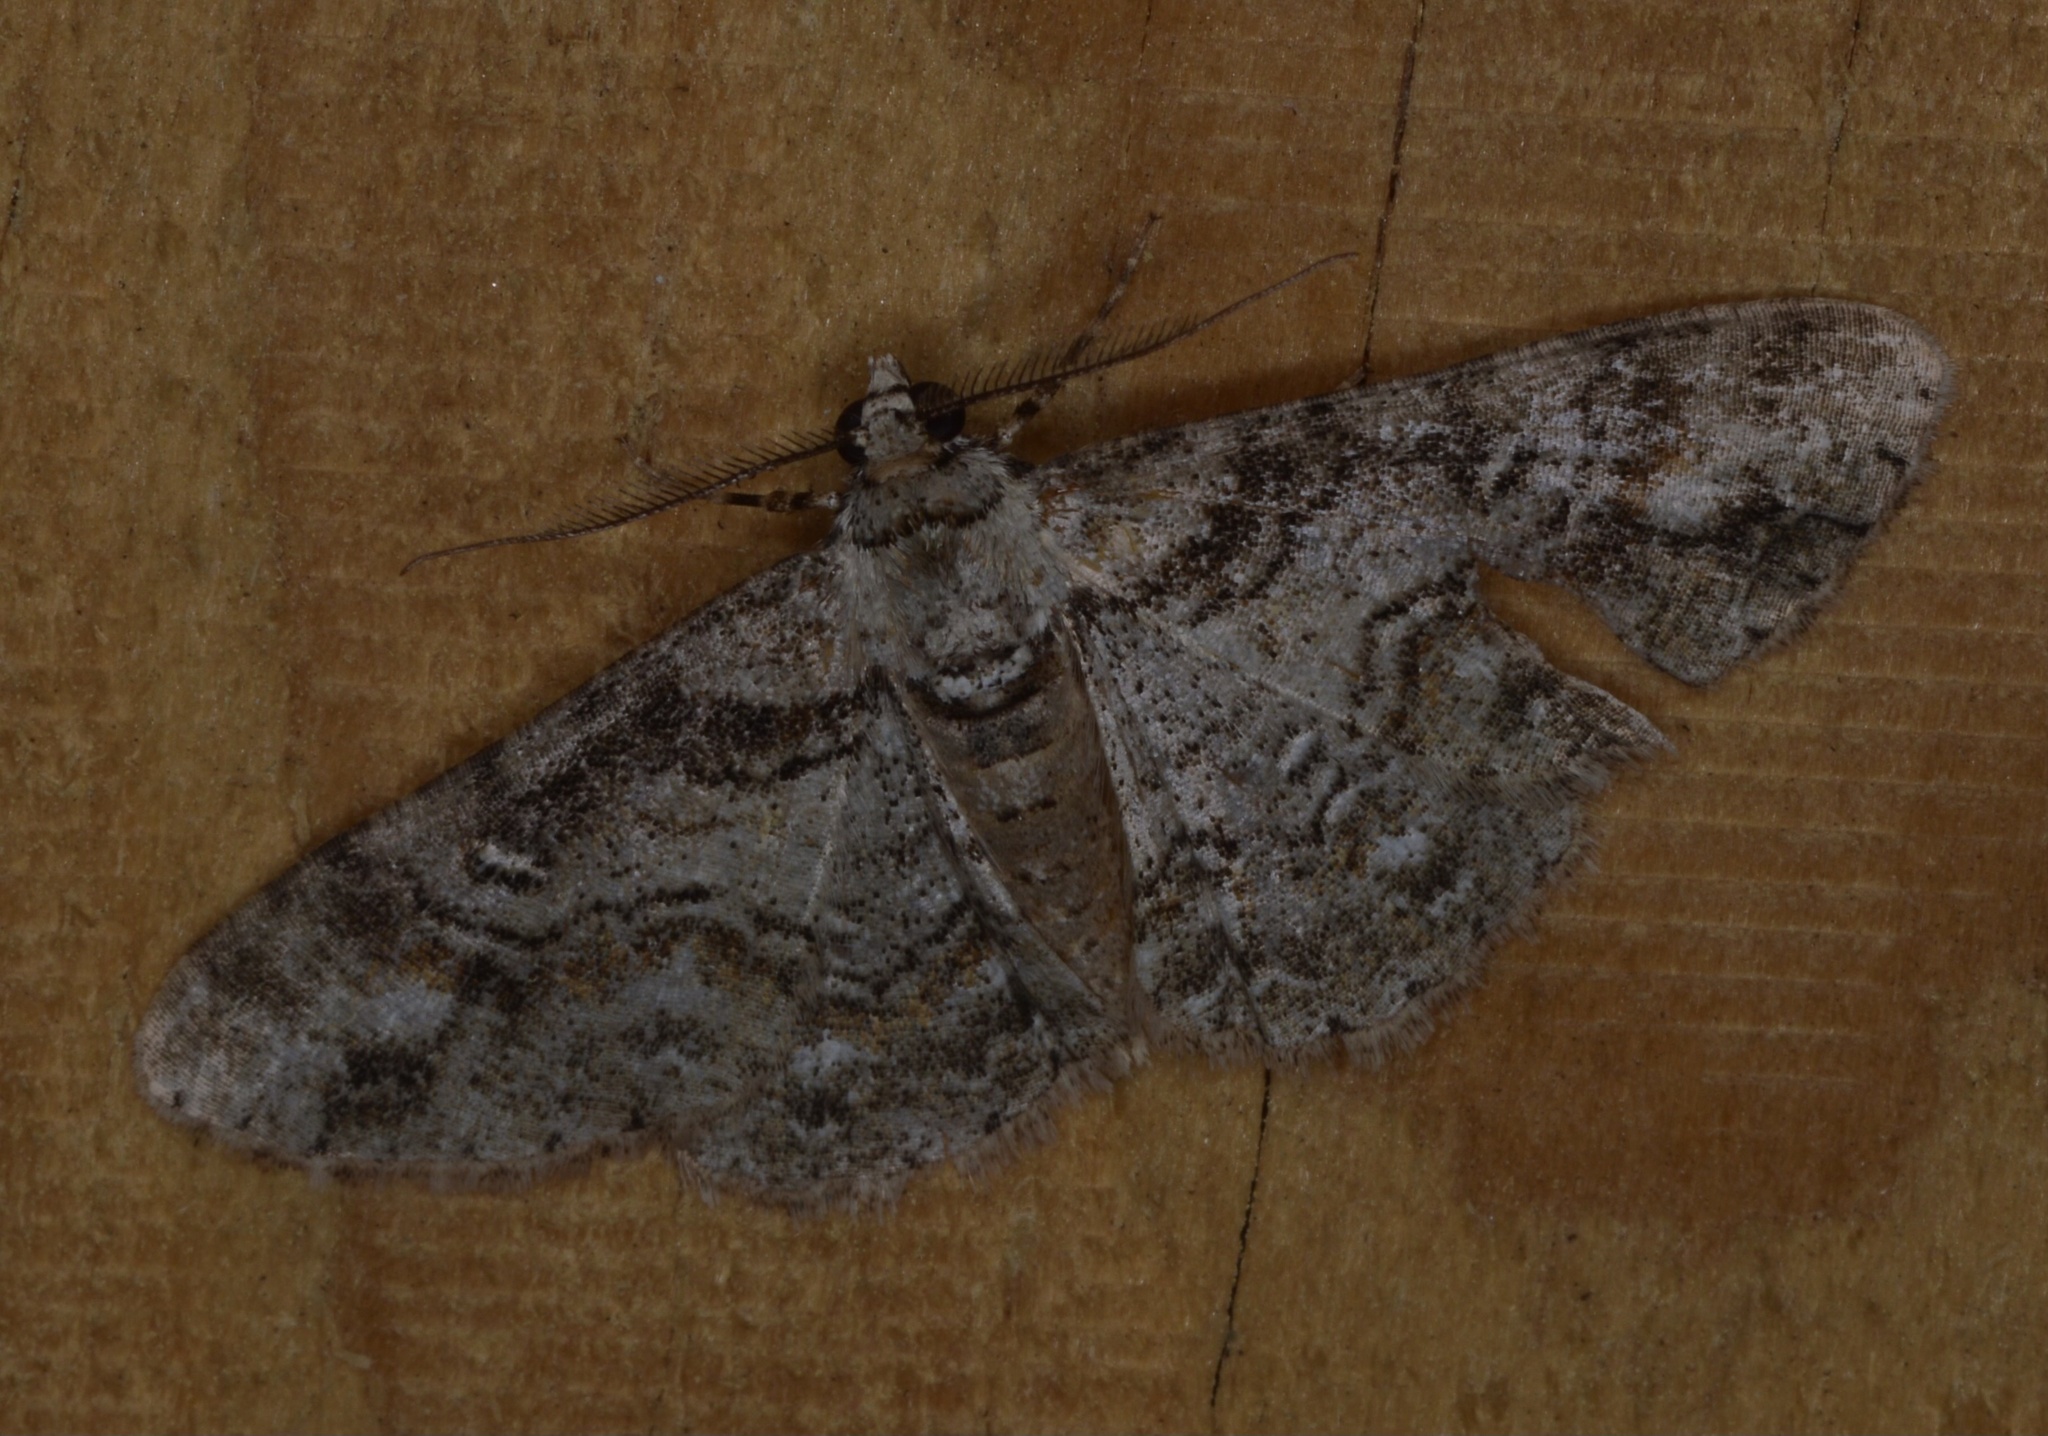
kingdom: Animalia
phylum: Arthropoda
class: Insecta
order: Lepidoptera
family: Geometridae
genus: Cleora
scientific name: Cleora sublunaria
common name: Double-lined gray
